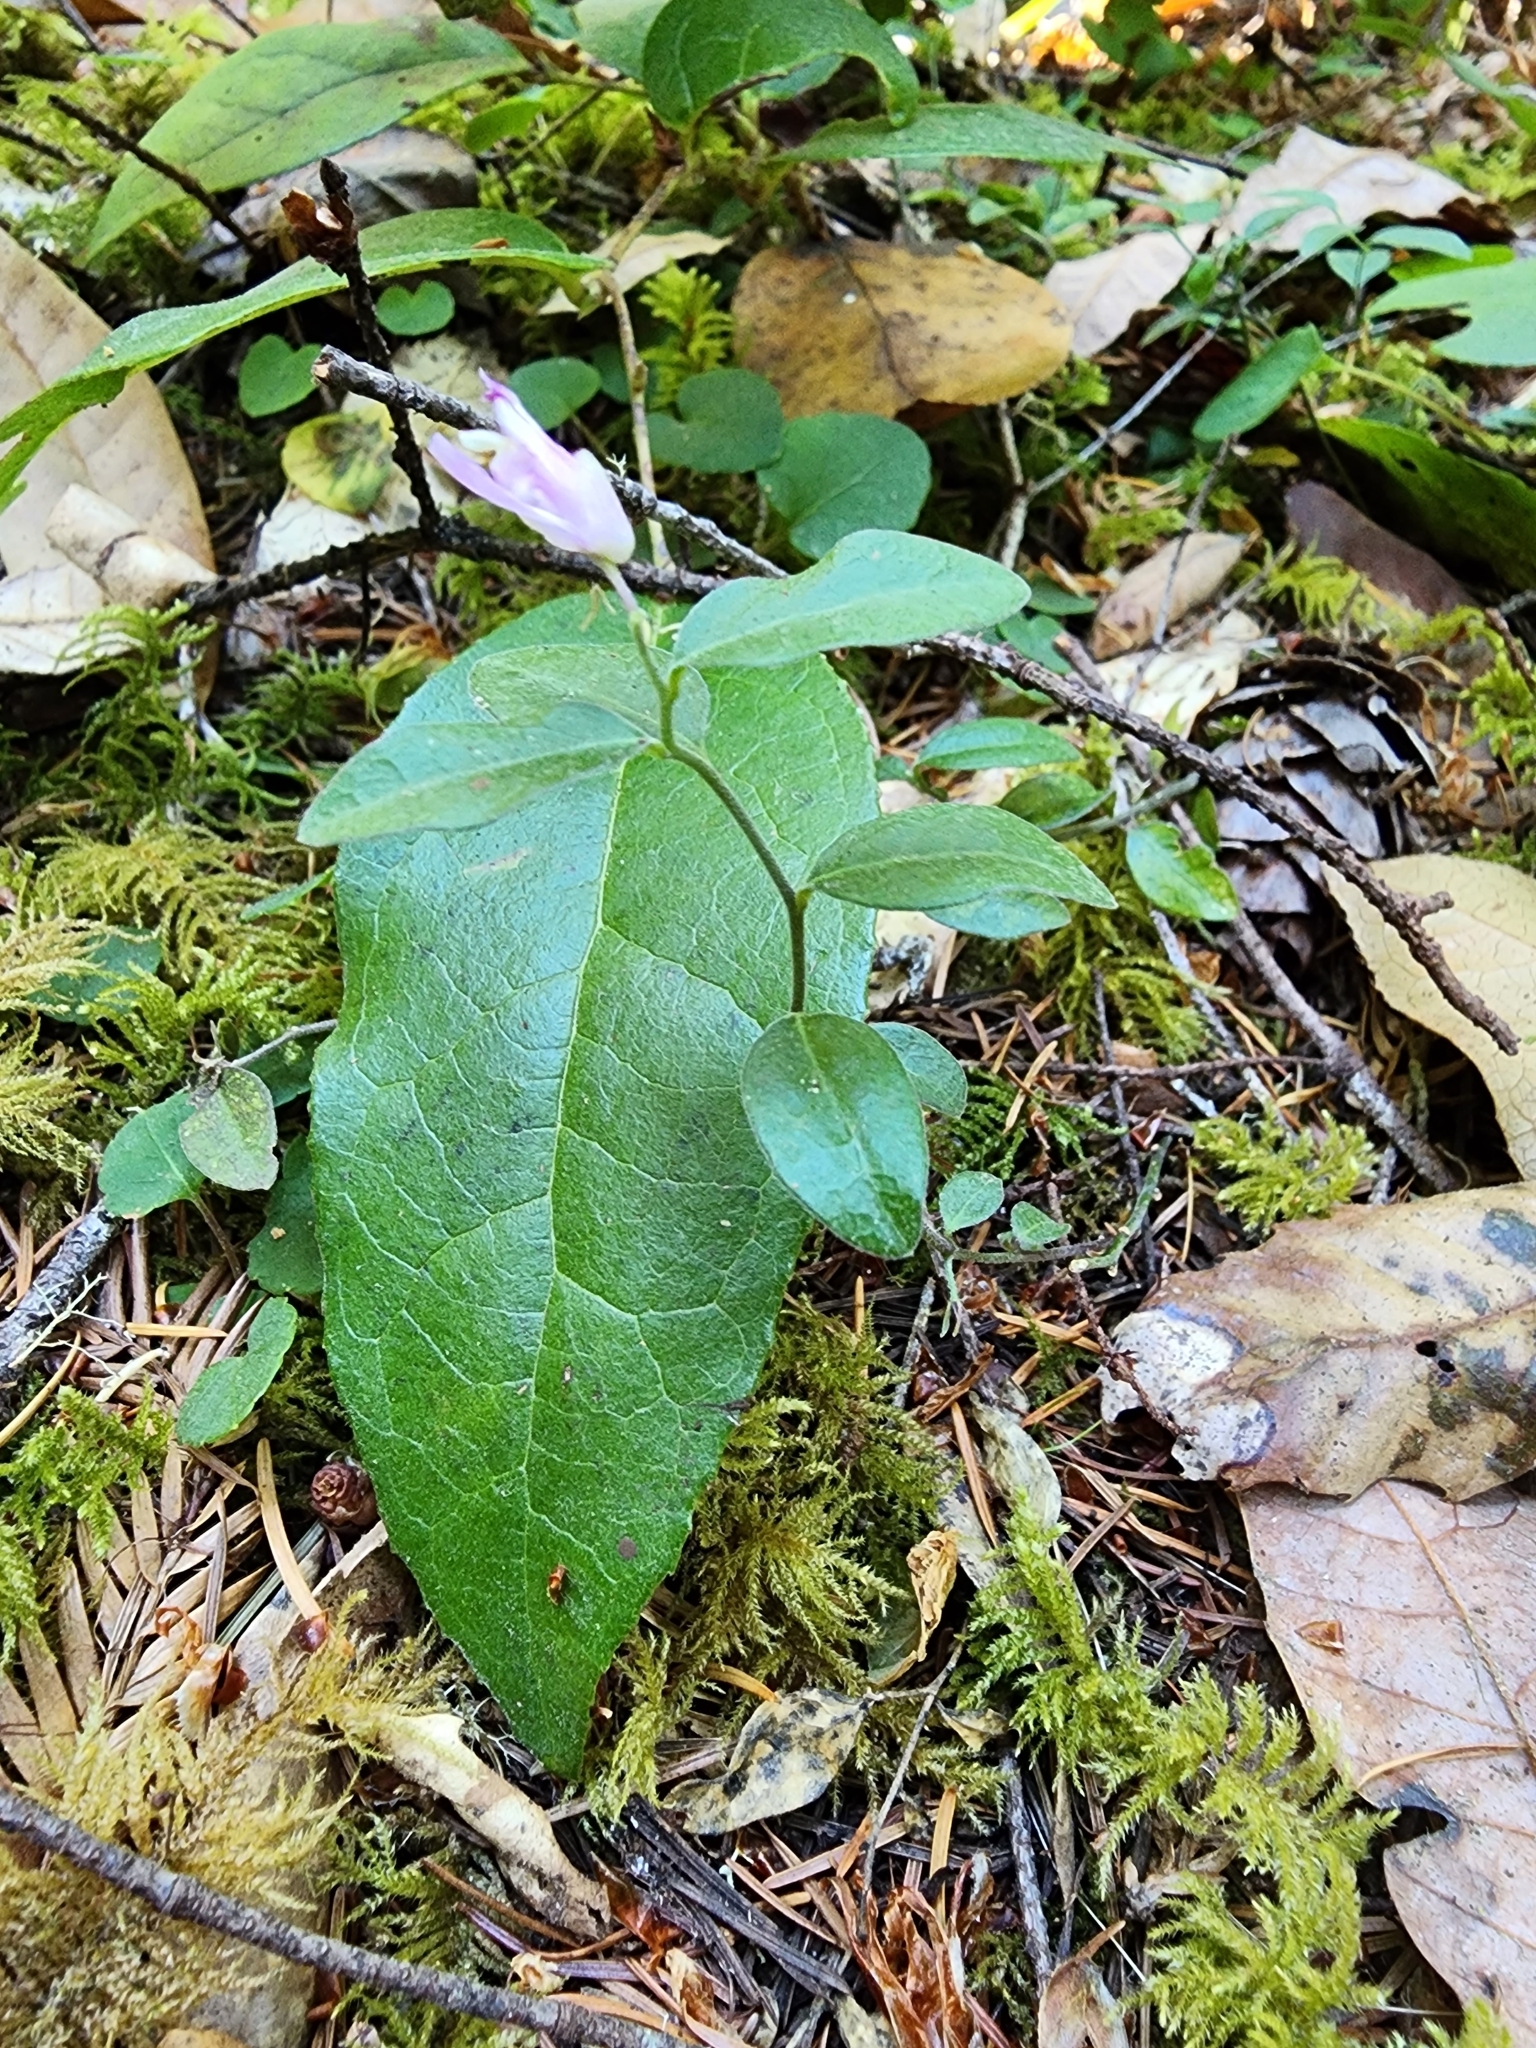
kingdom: Plantae
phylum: Tracheophyta
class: Magnoliopsida
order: Fabales
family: Polygalaceae
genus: Rhinotropis
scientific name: Rhinotropis californica
